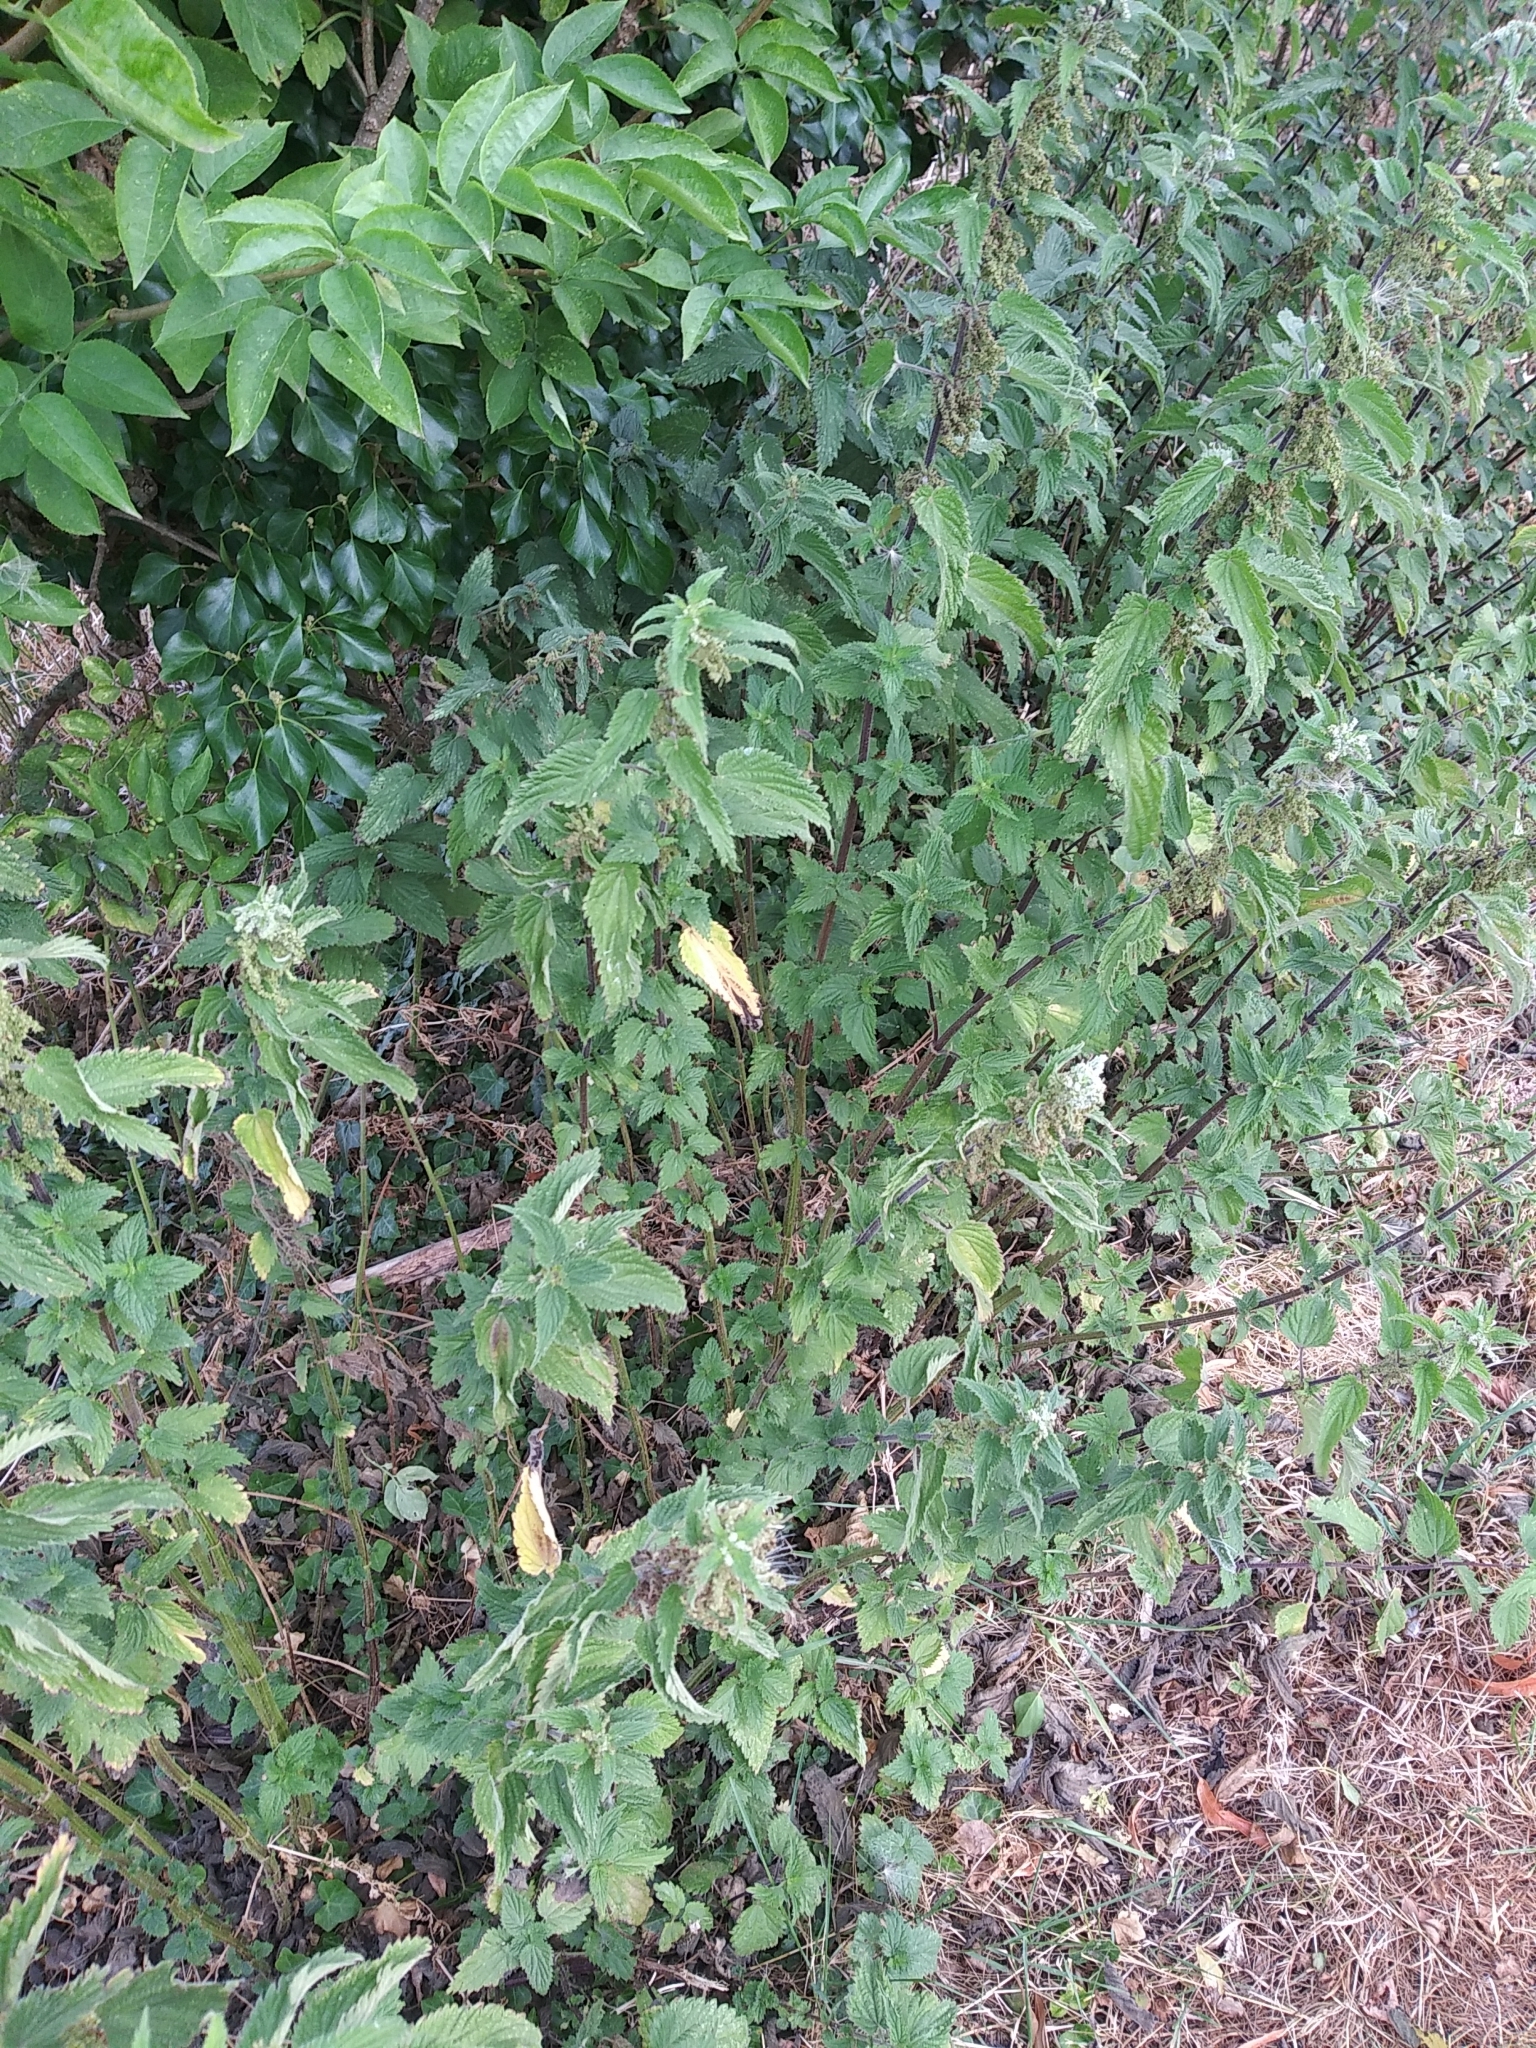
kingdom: Plantae
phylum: Tracheophyta
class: Magnoliopsida
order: Rosales
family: Urticaceae
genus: Urtica
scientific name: Urtica dioica
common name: Common nettle
